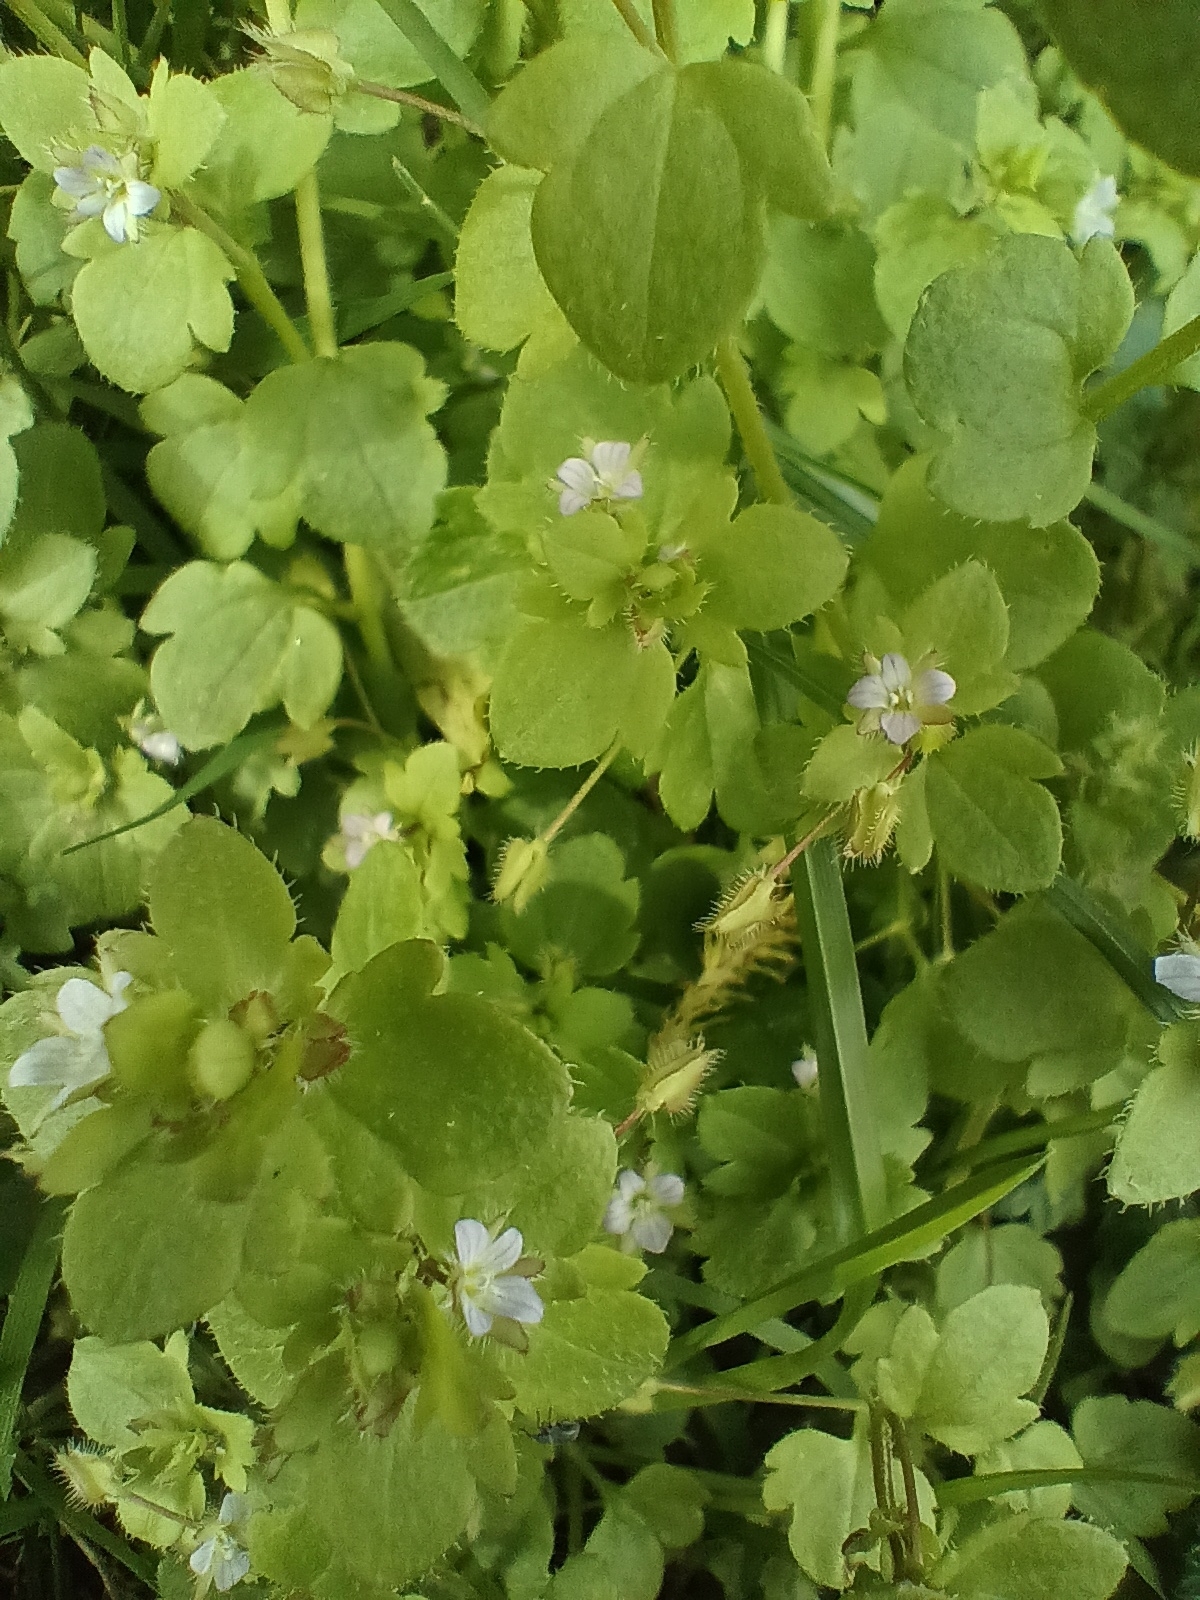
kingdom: Plantae
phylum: Tracheophyta
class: Magnoliopsida
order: Lamiales
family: Plantaginaceae
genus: Veronica
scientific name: Veronica sublobata
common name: False ivy-leaved speedwell
